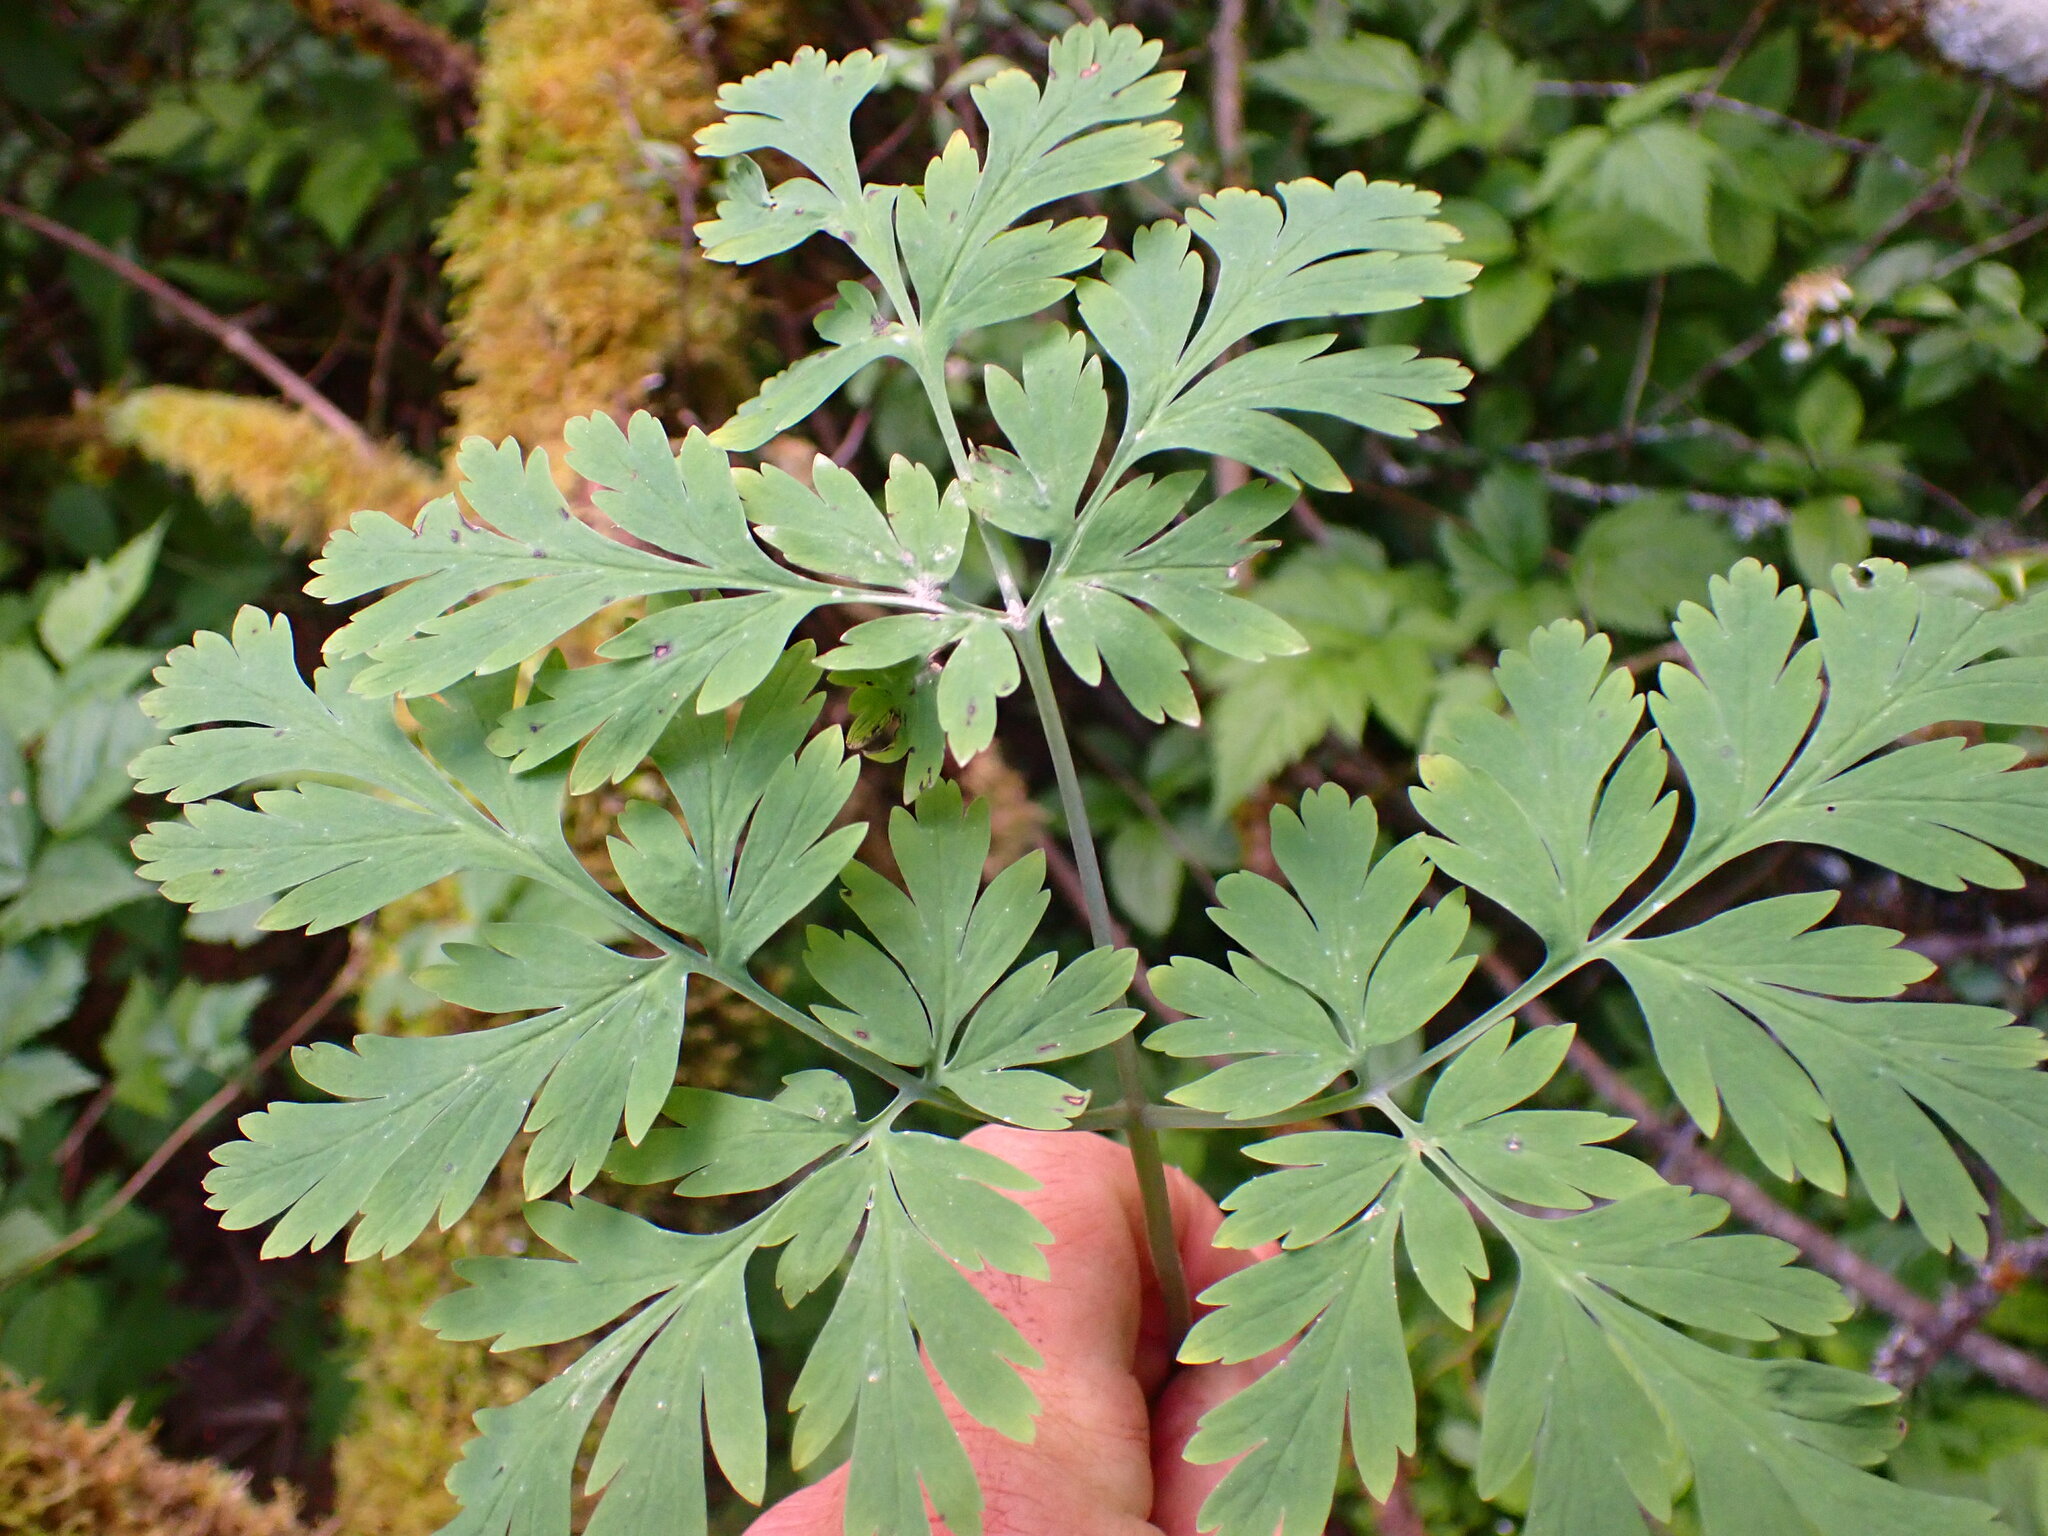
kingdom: Plantae
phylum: Tracheophyta
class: Magnoliopsida
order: Ranunculales
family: Papaveraceae
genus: Dicentra
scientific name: Dicentra formosa
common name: Bleeding-heart
